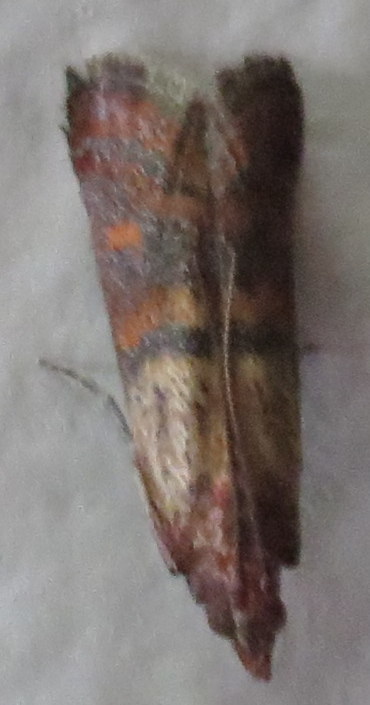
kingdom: Animalia
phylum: Arthropoda
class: Insecta
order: Lepidoptera
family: Pyralidae
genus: Plodia
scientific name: Plodia interpunctella
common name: Indian meal moth
